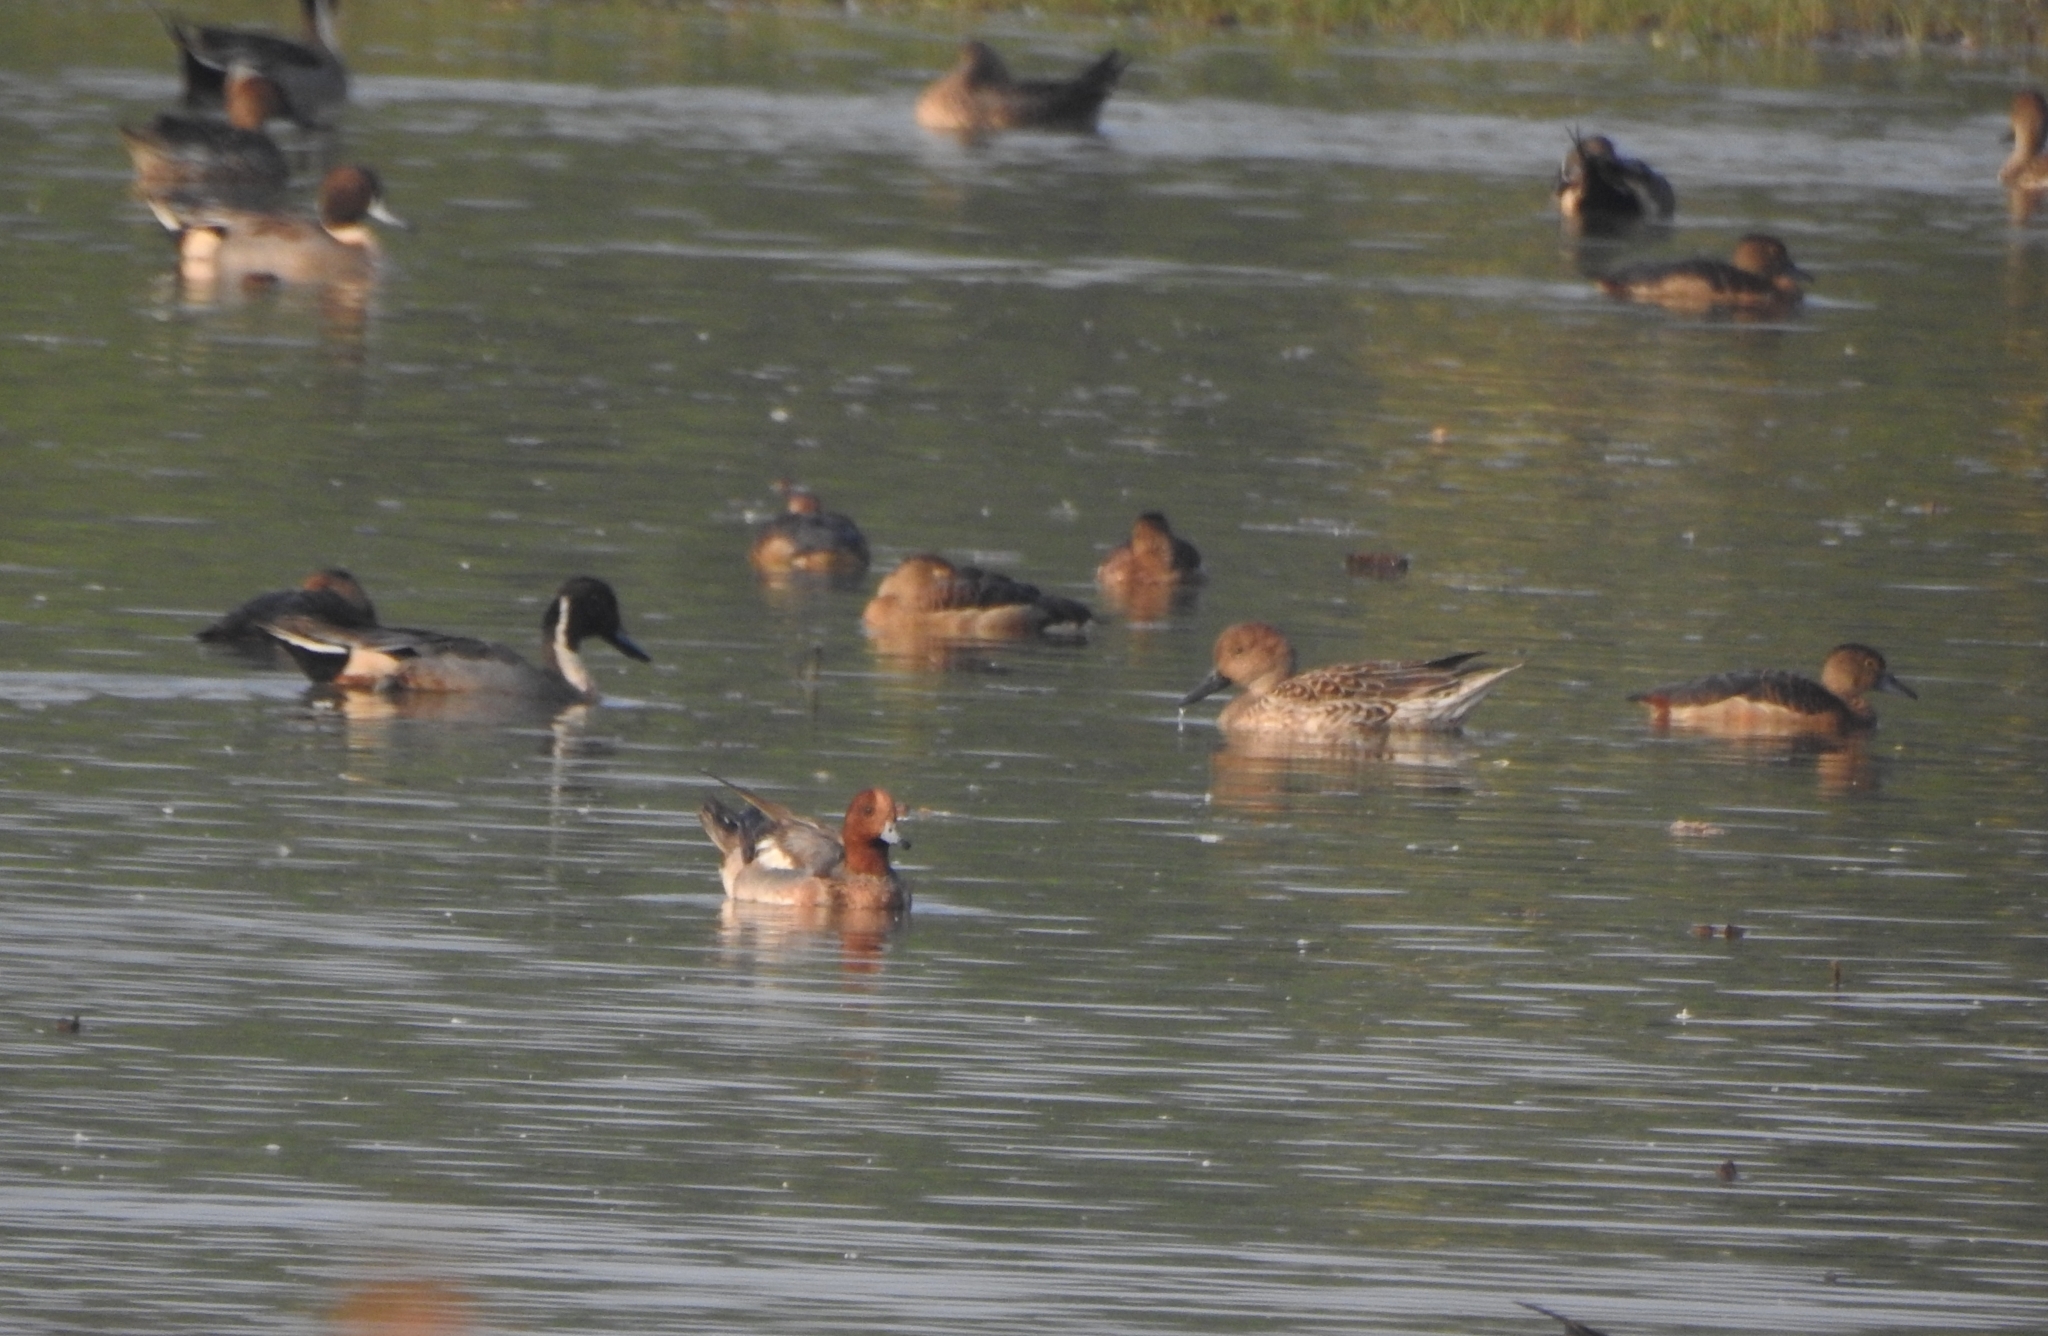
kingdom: Animalia
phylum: Chordata
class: Aves
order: Anseriformes
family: Anatidae
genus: Mareca
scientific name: Mareca penelope
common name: Eurasian wigeon
